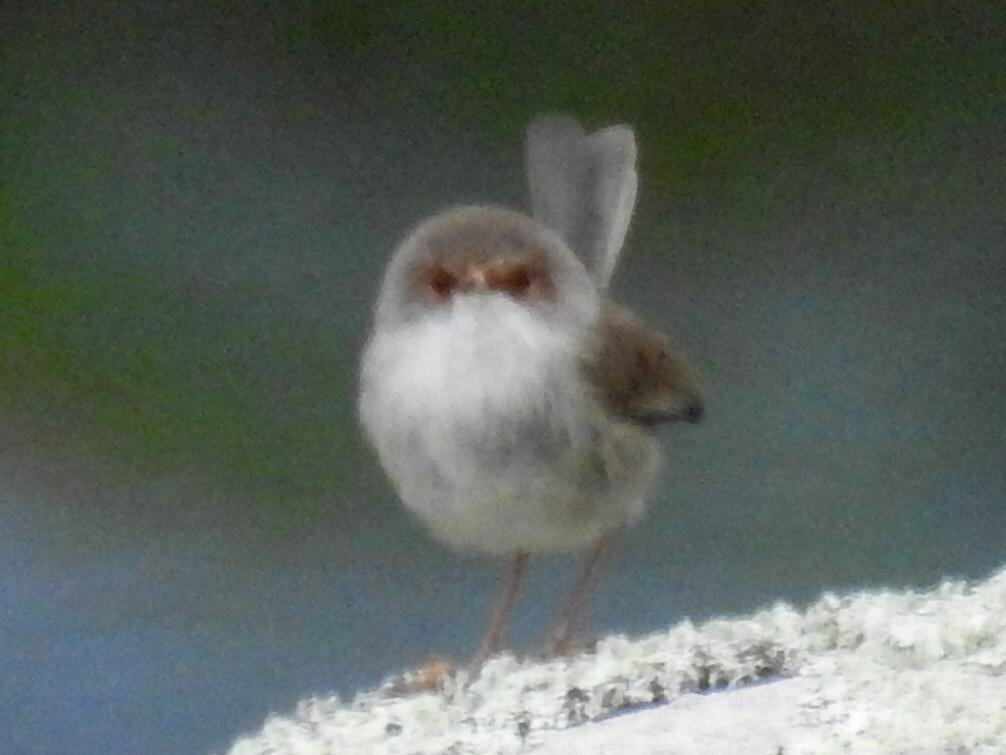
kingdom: Animalia
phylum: Chordata
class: Aves
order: Passeriformes
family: Maluridae
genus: Malurus
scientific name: Malurus cyaneus
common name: Superb fairywren
